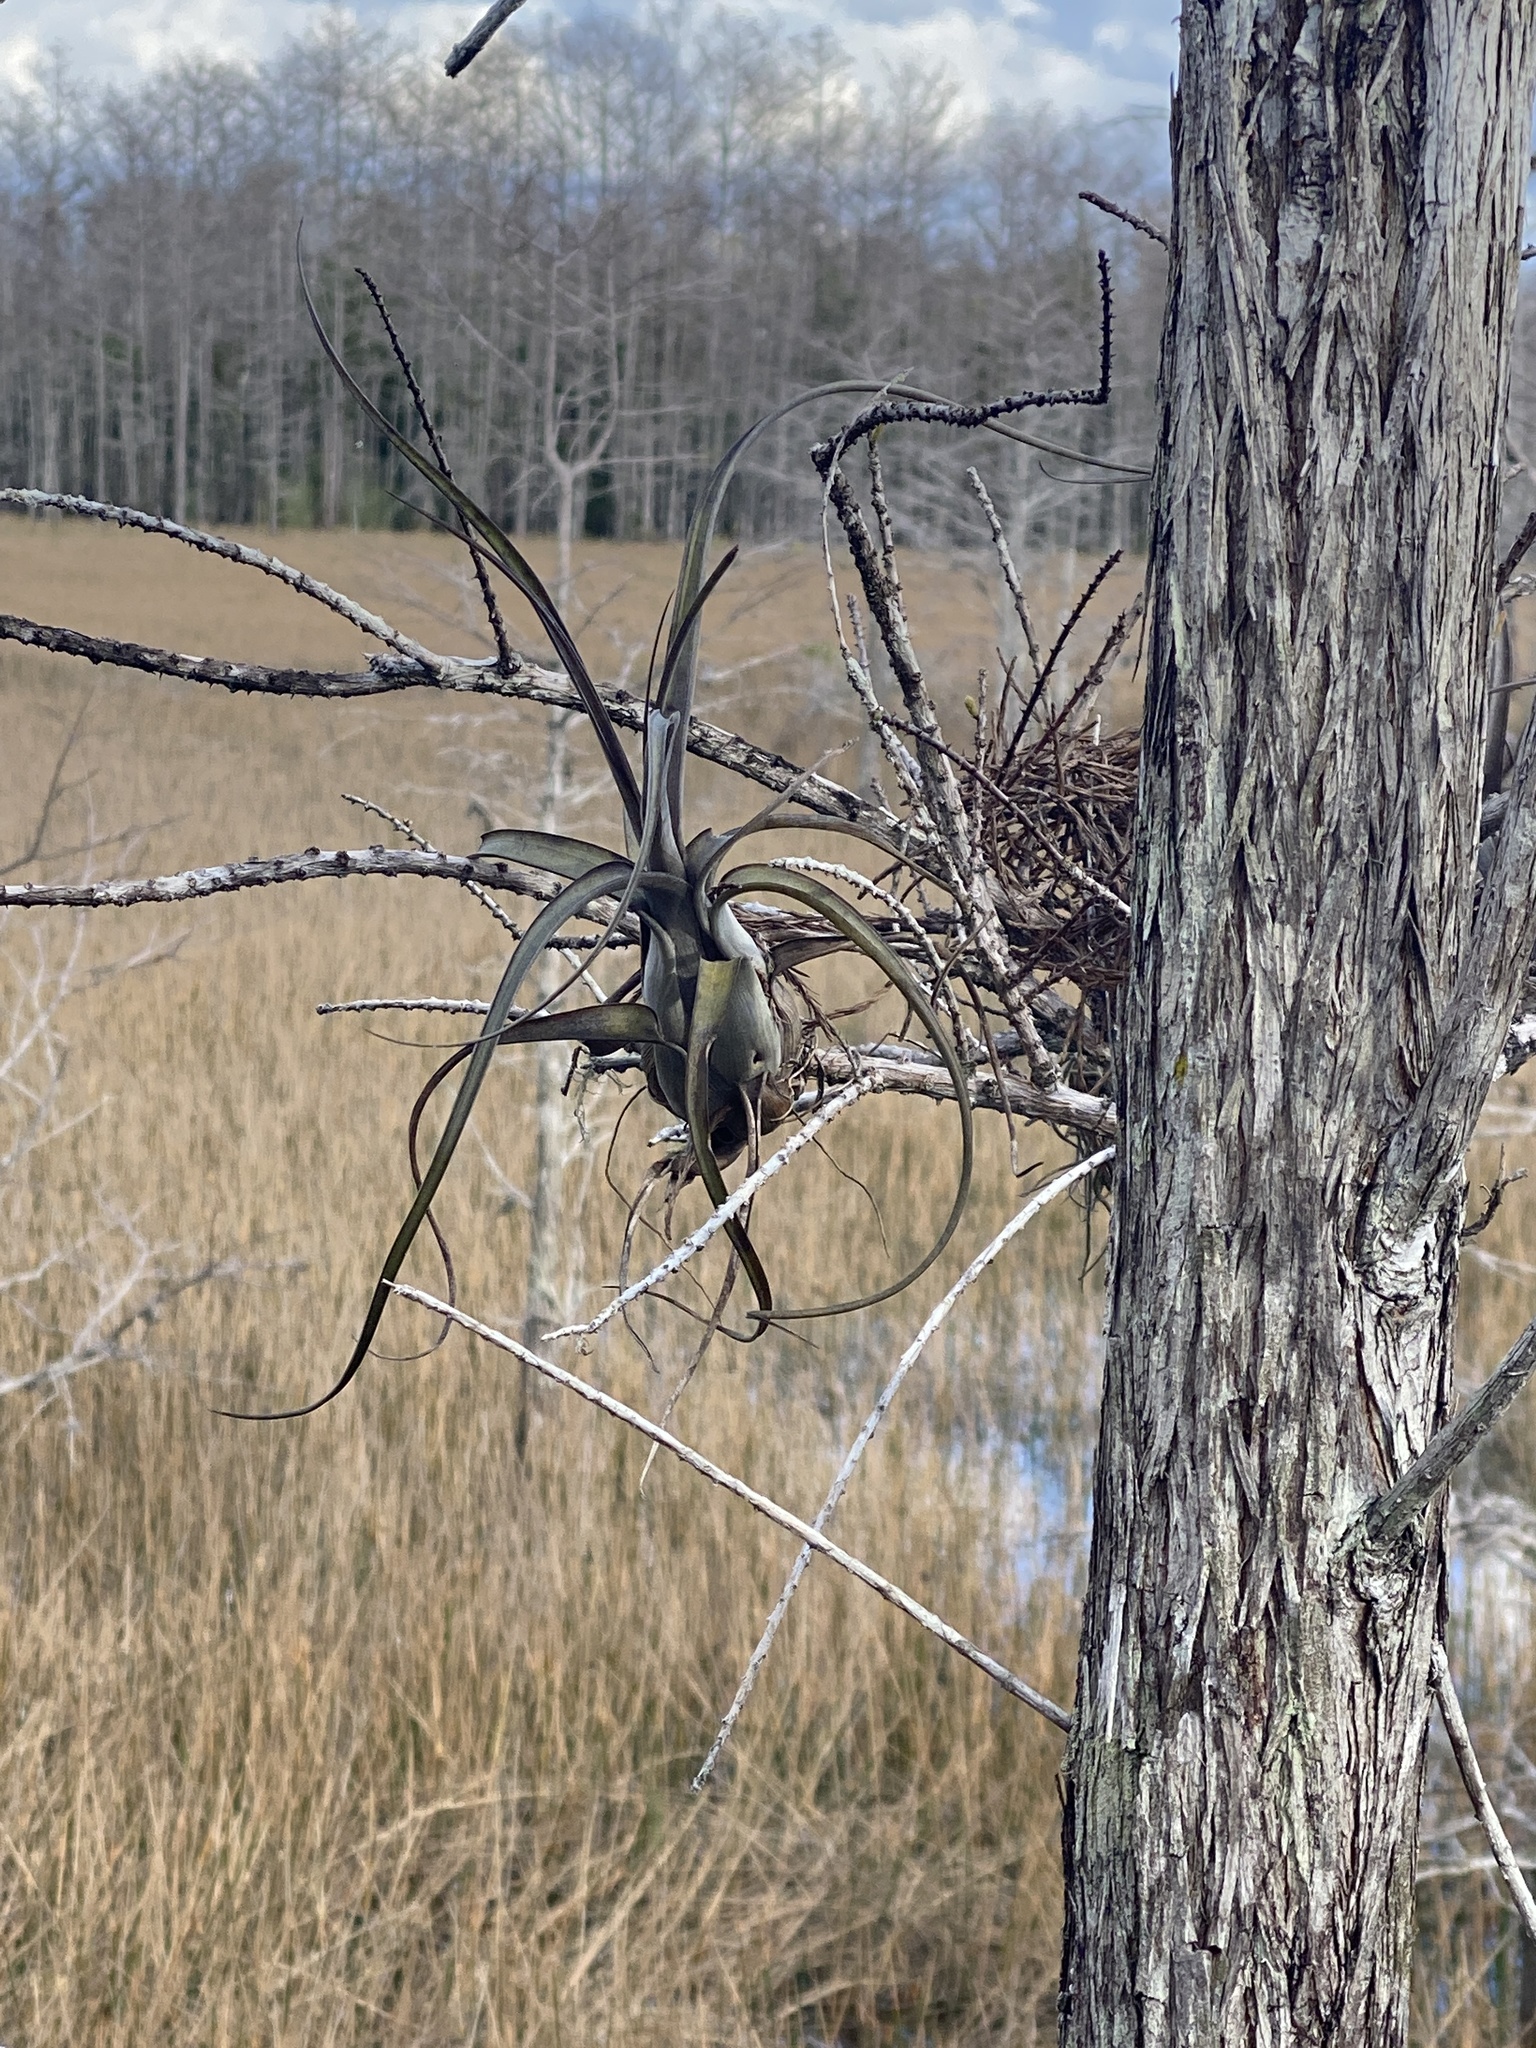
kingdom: Plantae
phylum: Tracheophyta
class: Liliopsida
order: Poales
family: Bromeliaceae
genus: Tillandsia
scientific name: Tillandsia balbisiana
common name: Northern needleleaf
